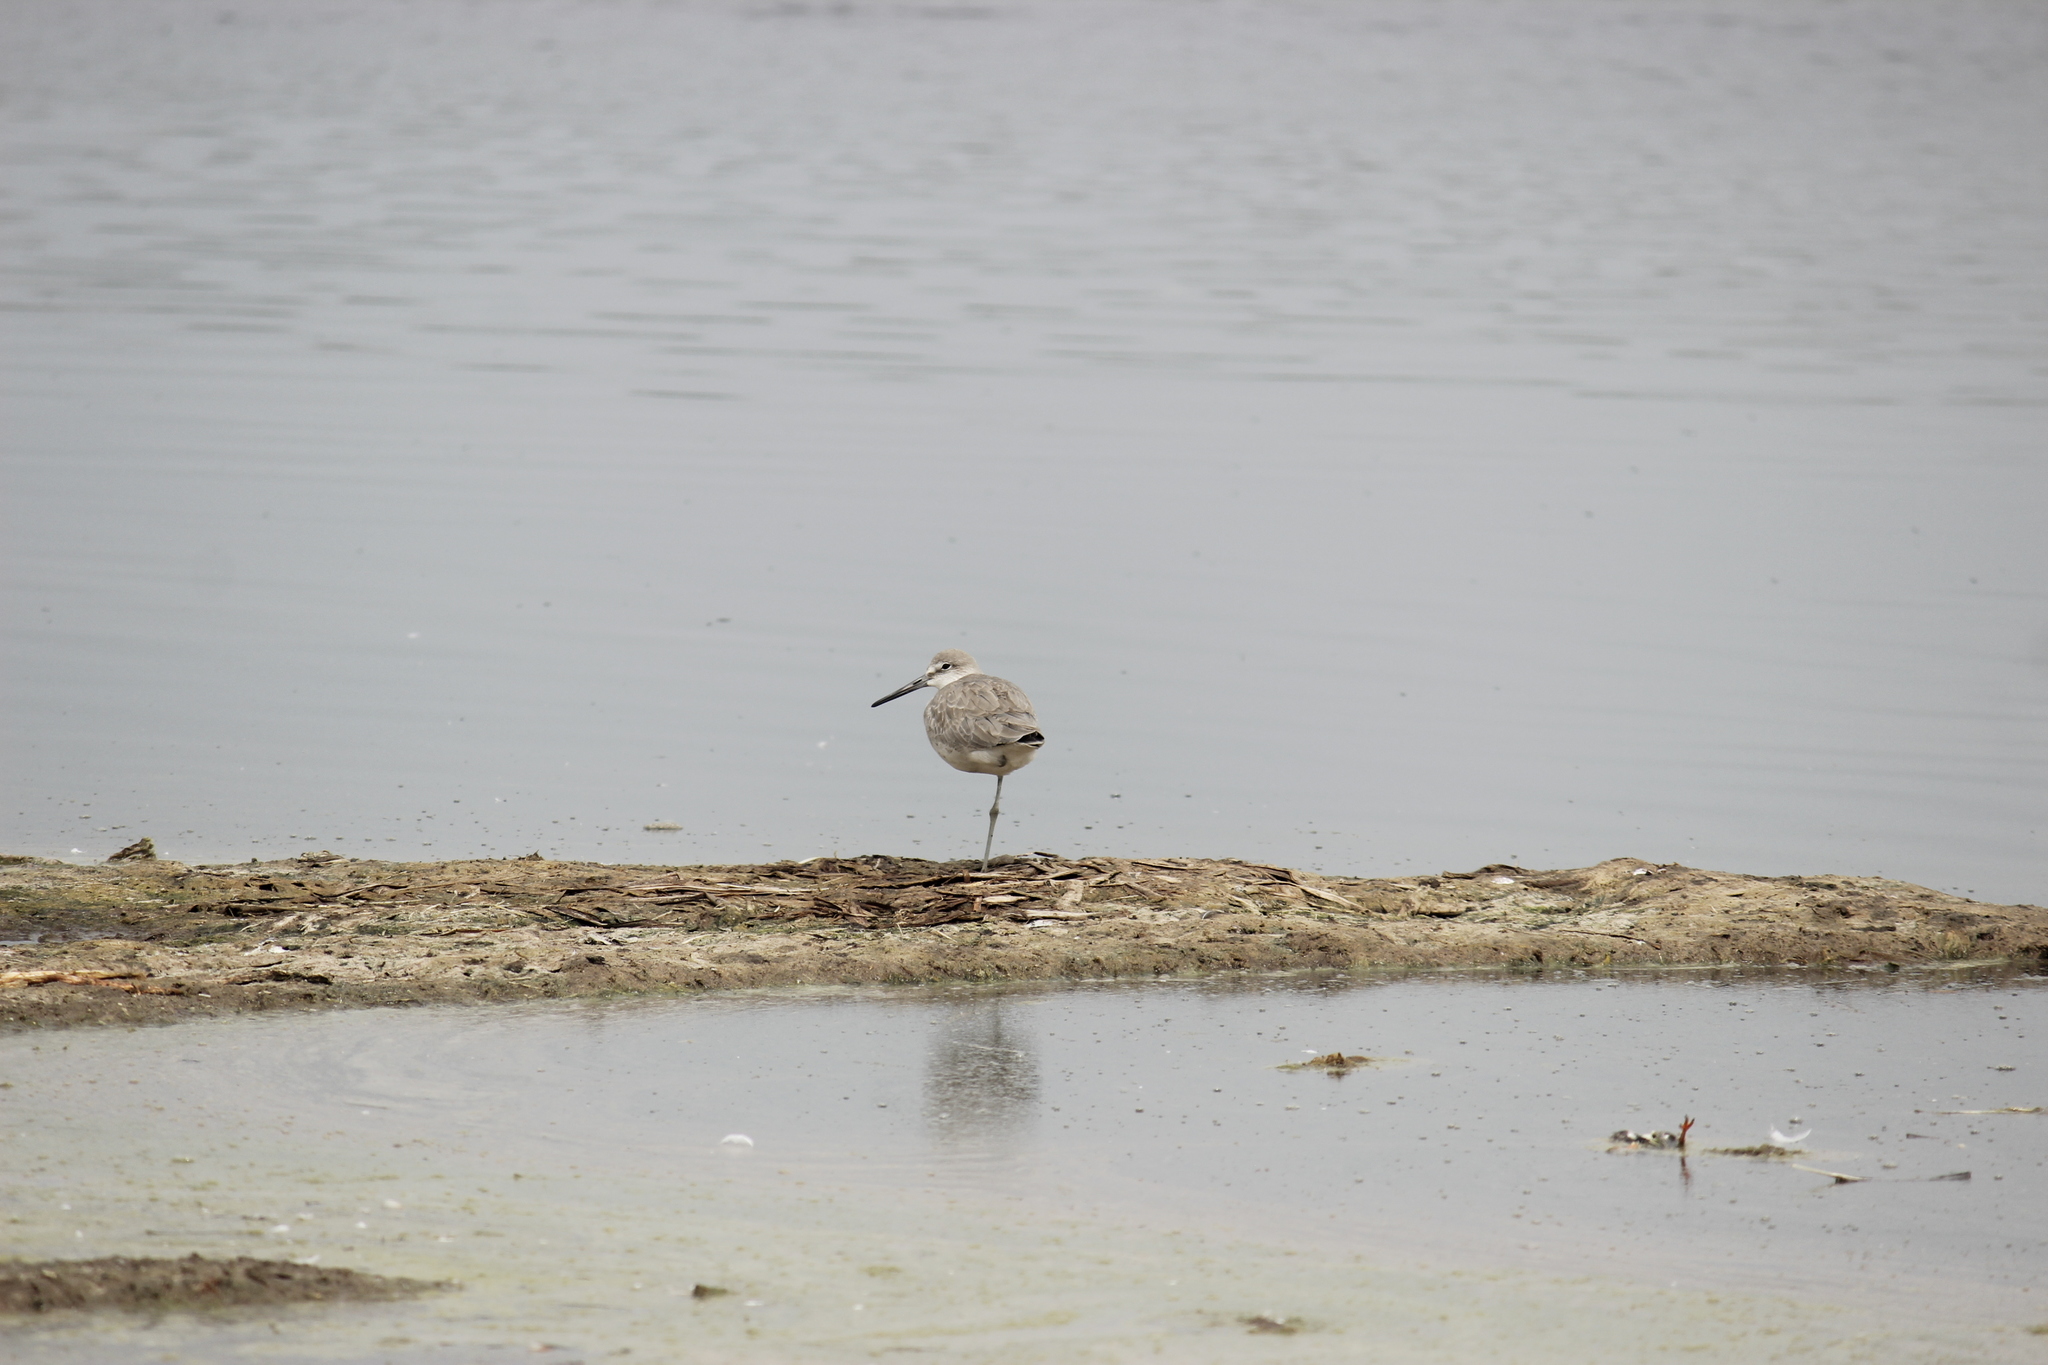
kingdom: Animalia
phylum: Chordata
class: Aves
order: Charadriiformes
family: Scolopacidae
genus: Tringa
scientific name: Tringa semipalmata
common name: Willet
